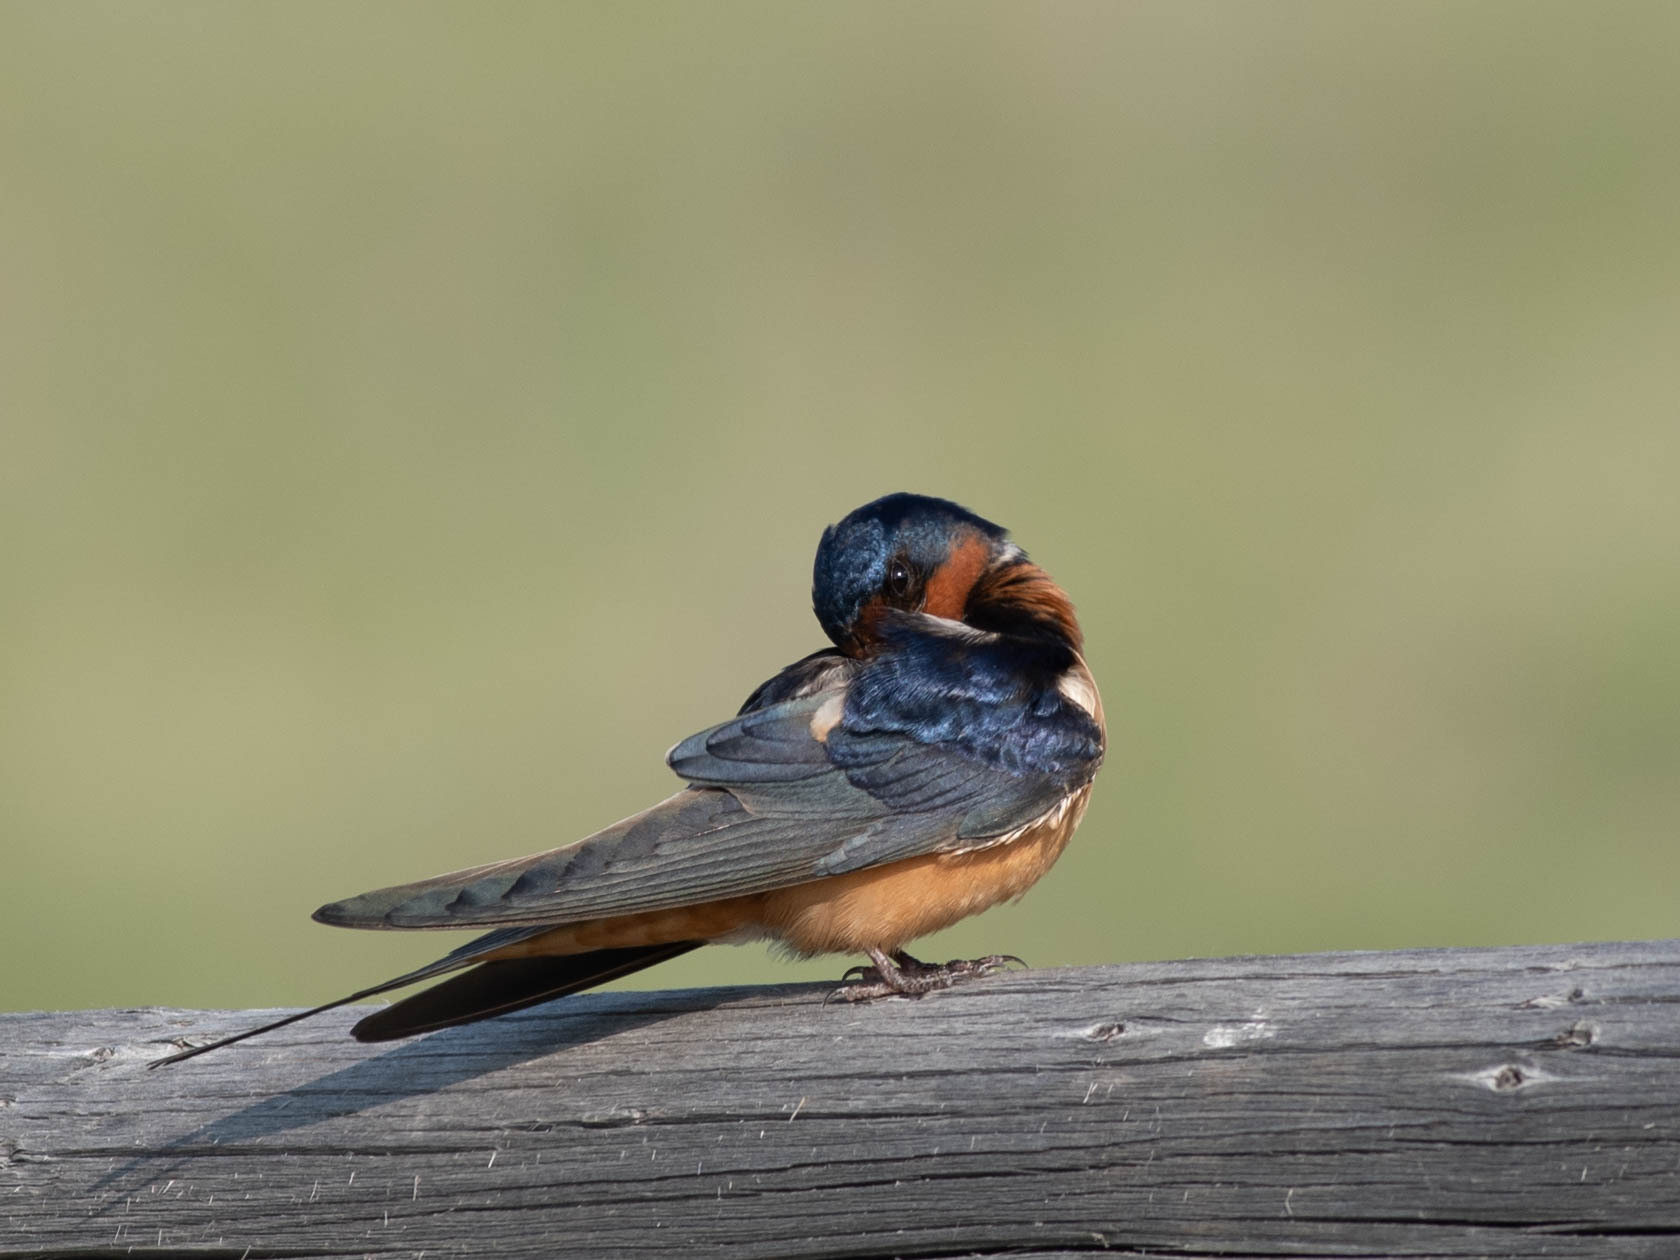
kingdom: Animalia
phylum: Chordata
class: Aves
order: Passeriformes
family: Hirundinidae
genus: Hirundo
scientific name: Hirundo rustica
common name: Barn swallow
